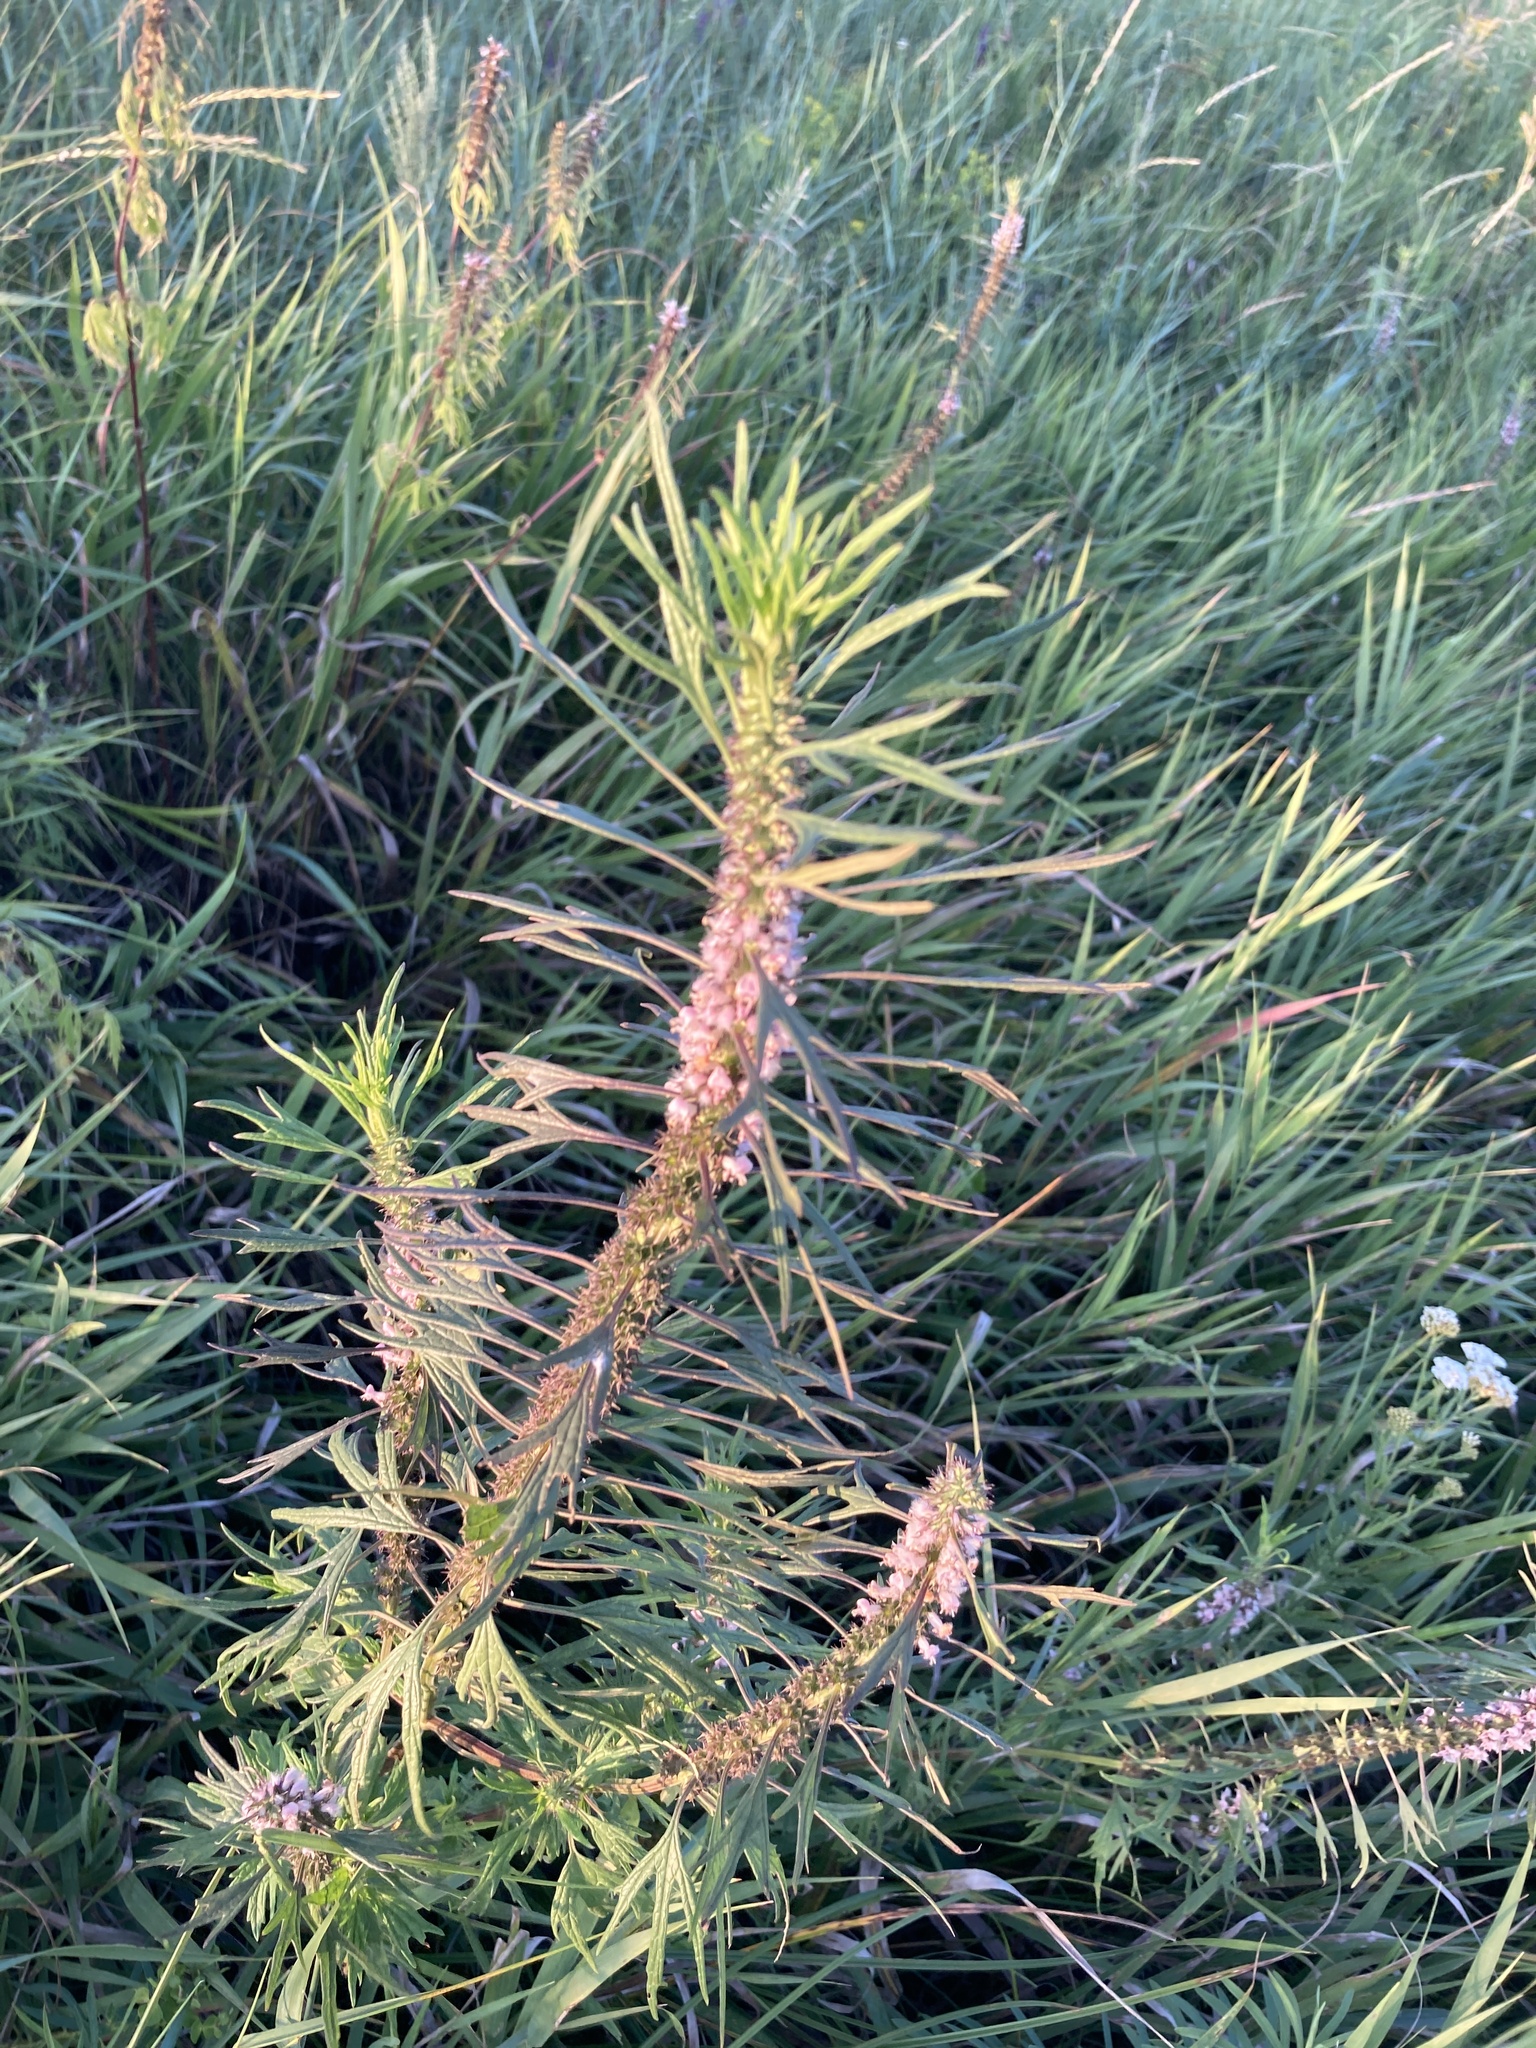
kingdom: Plantae
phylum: Tracheophyta
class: Magnoliopsida
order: Lamiales
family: Lamiaceae
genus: Leonurus
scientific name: Leonurus glaucescens
